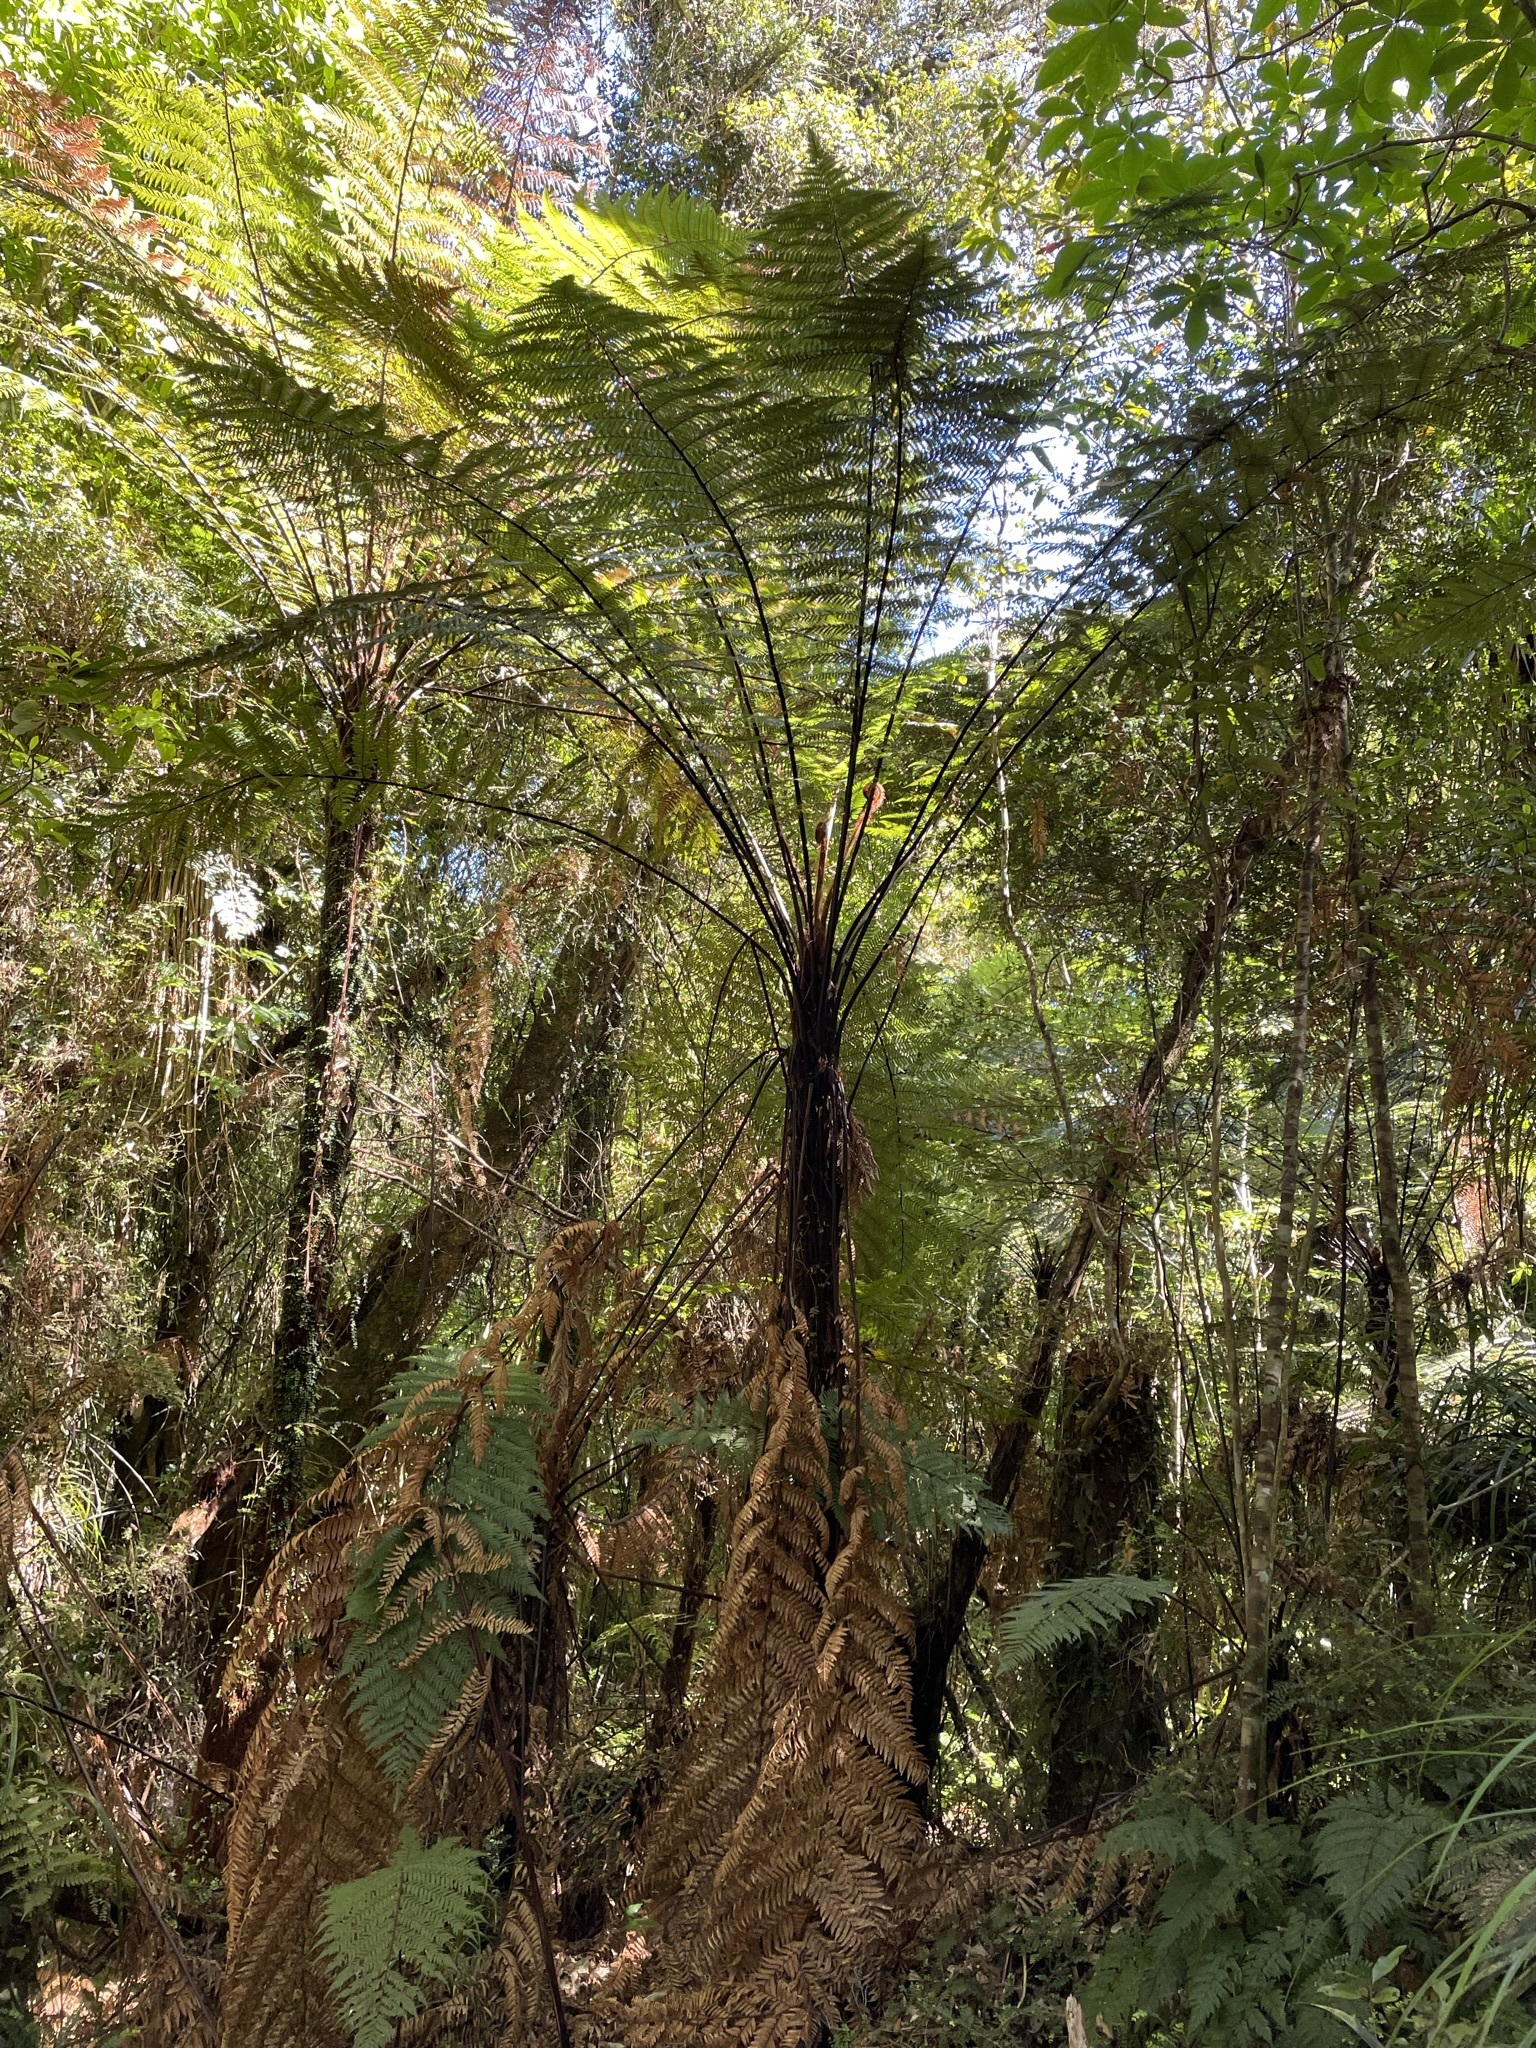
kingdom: Plantae
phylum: Tracheophyta
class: Polypodiopsida
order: Cyatheales
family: Dicksoniaceae
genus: Dicksonia
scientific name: Dicksonia squarrosa
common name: Hard treefern
